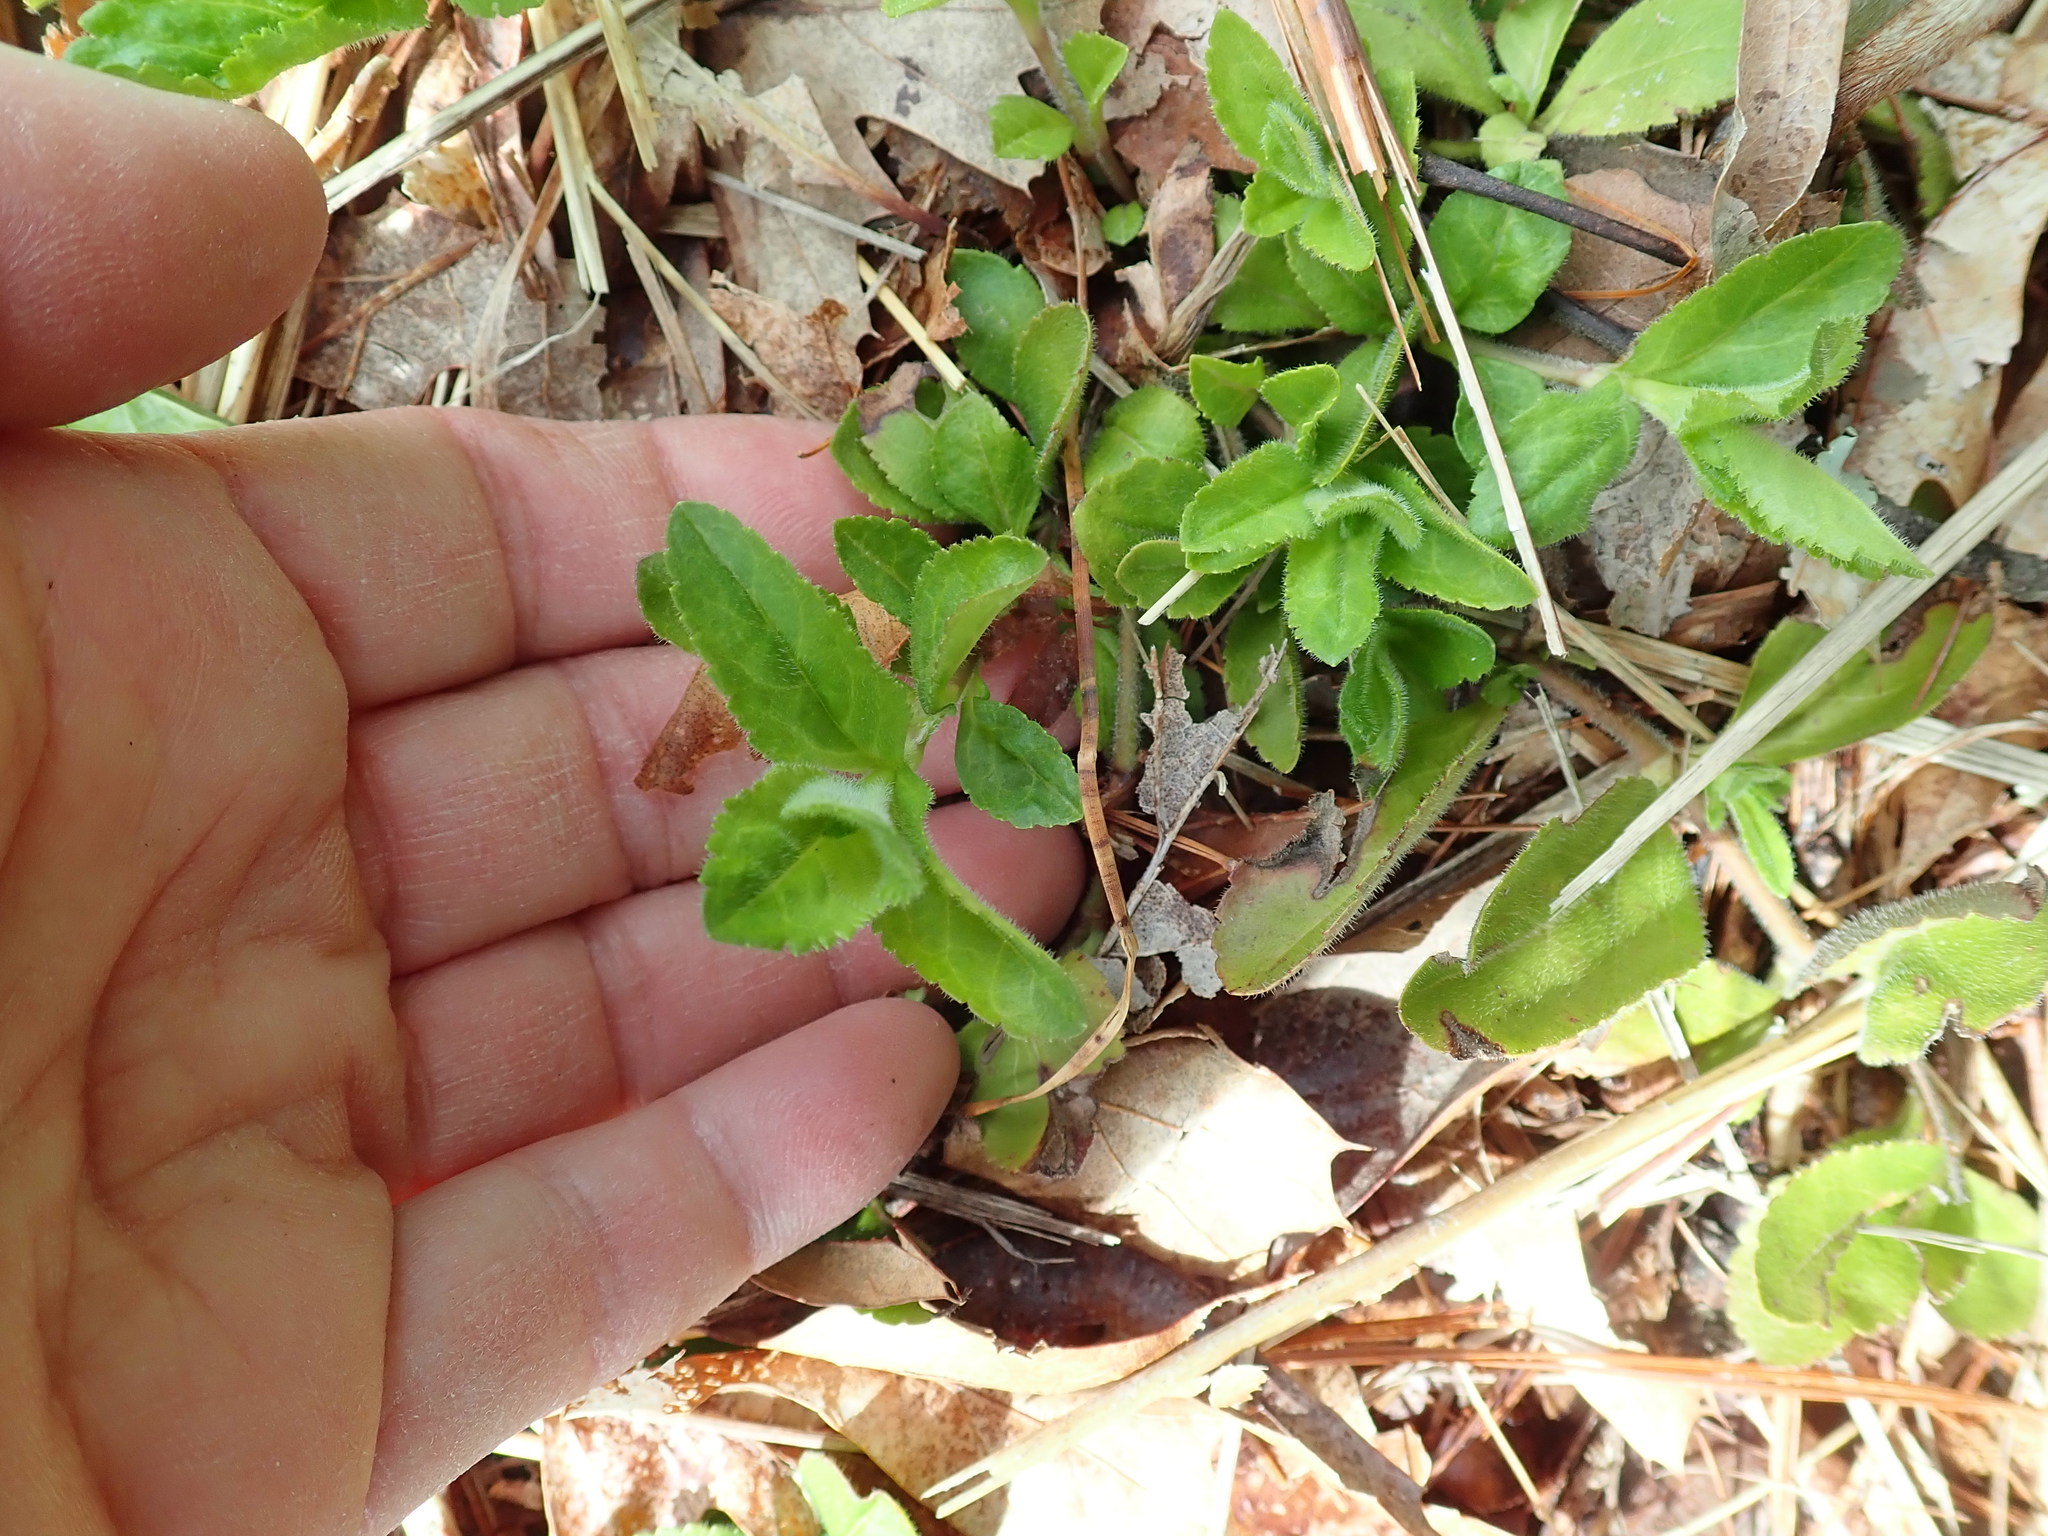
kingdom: Plantae
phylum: Tracheophyta
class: Magnoliopsida
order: Lamiales
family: Plantaginaceae
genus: Veronica
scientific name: Veronica officinalis
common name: Common speedwell
